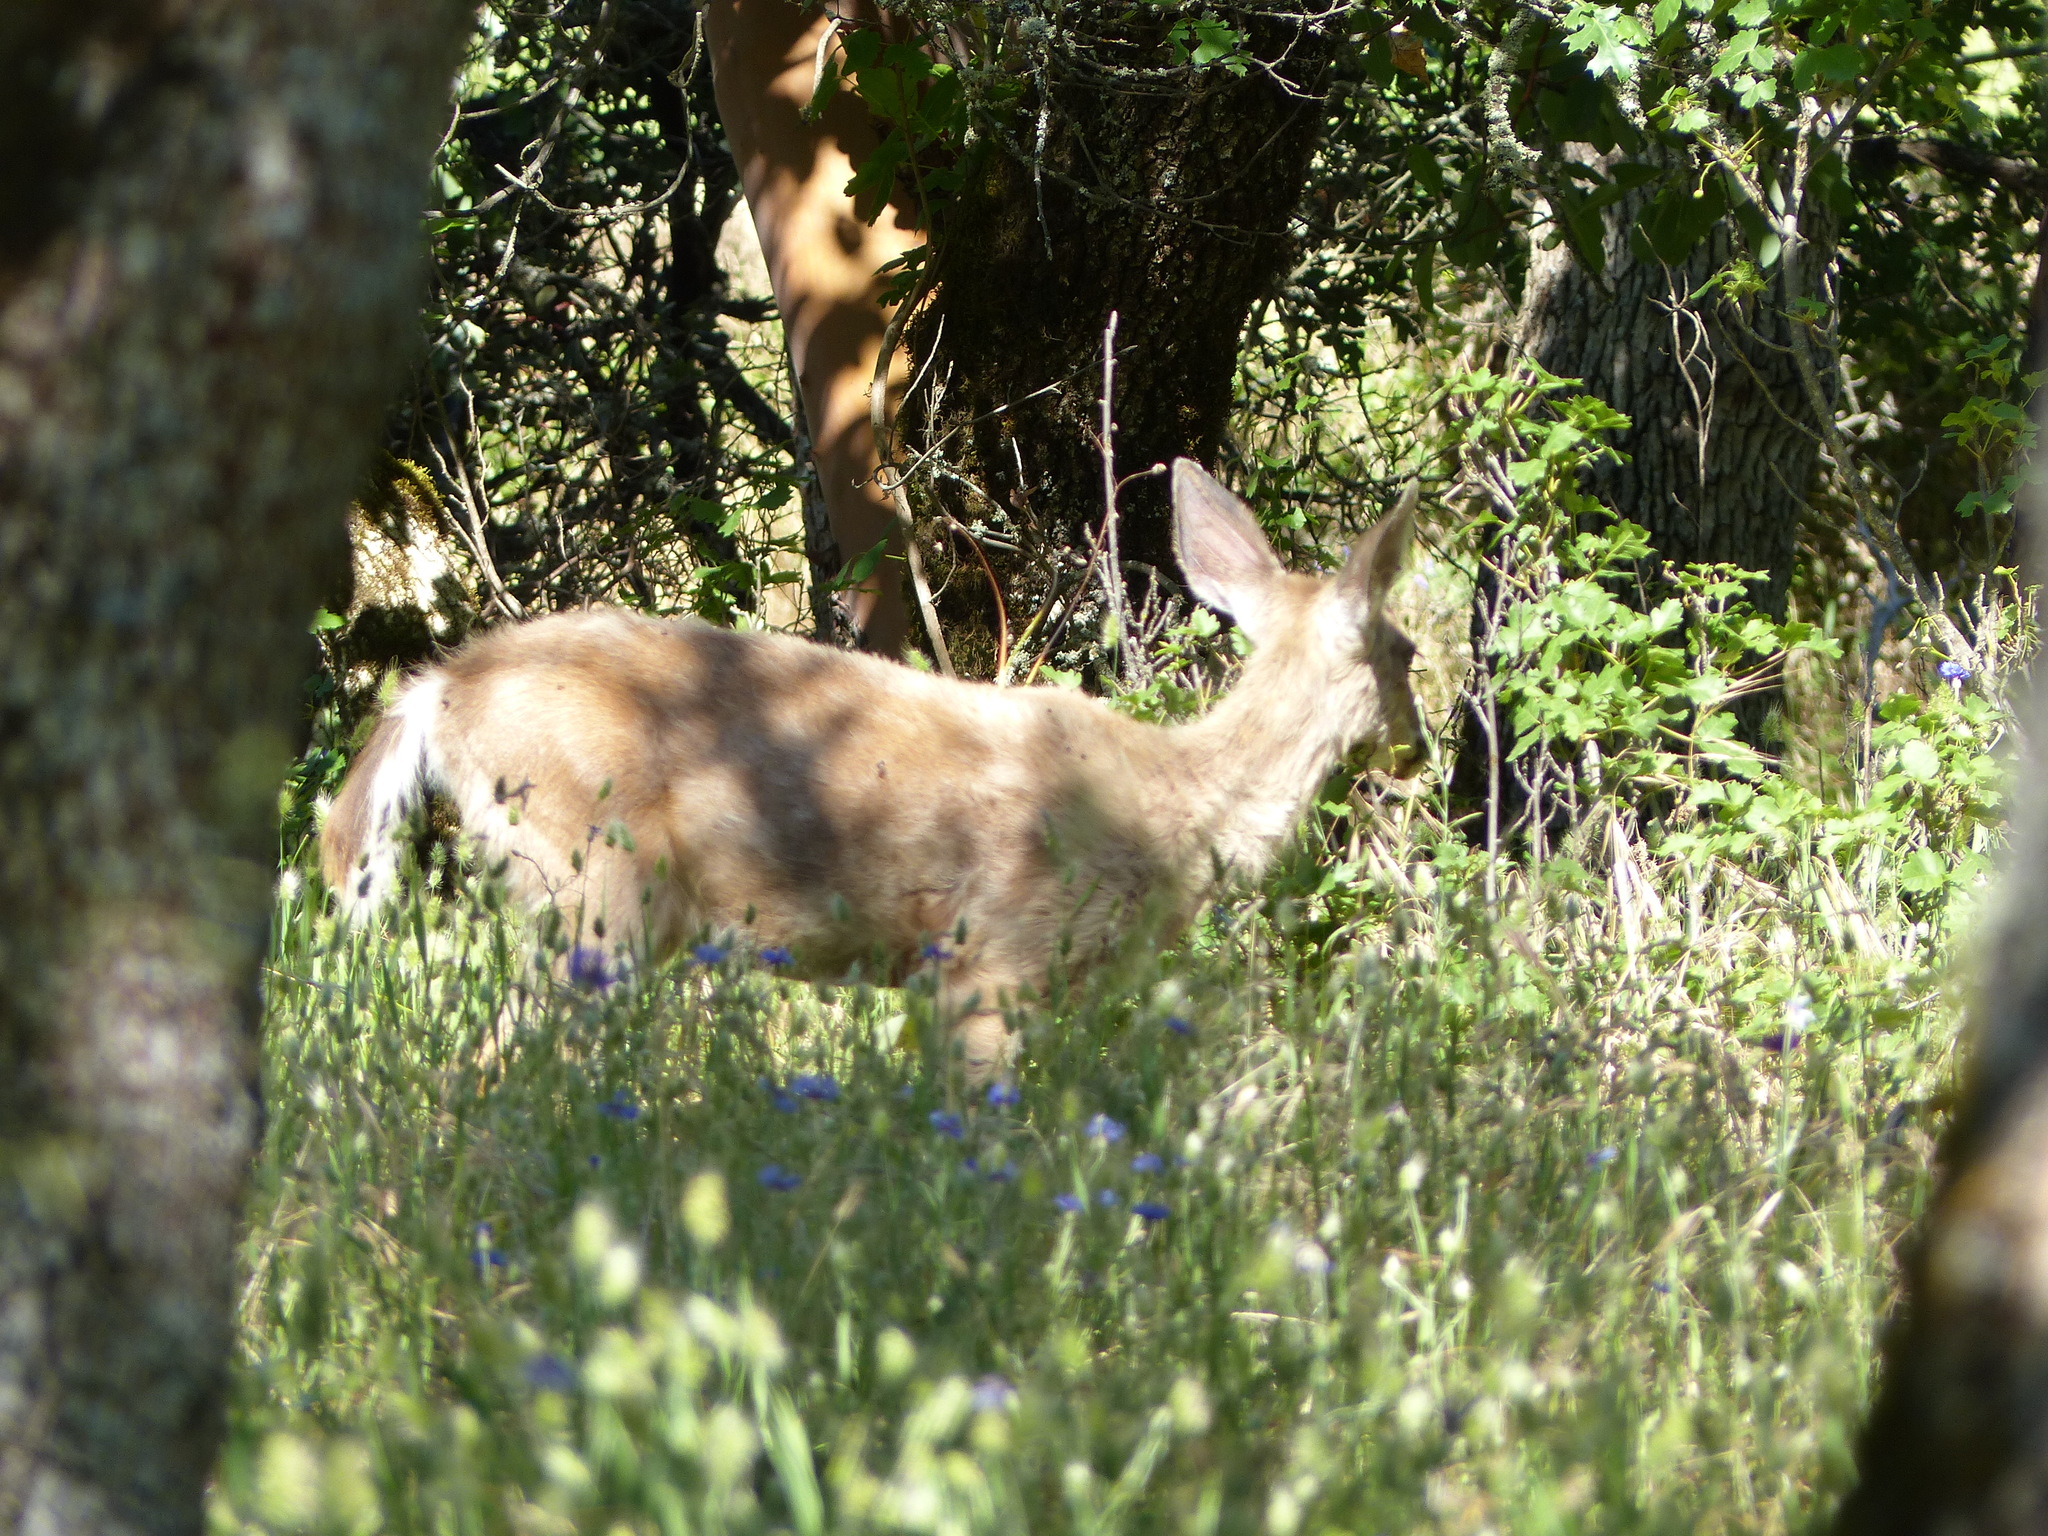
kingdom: Animalia
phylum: Chordata
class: Mammalia
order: Artiodactyla
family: Cervidae
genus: Odocoileus
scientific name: Odocoileus hemionus
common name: Mule deer
